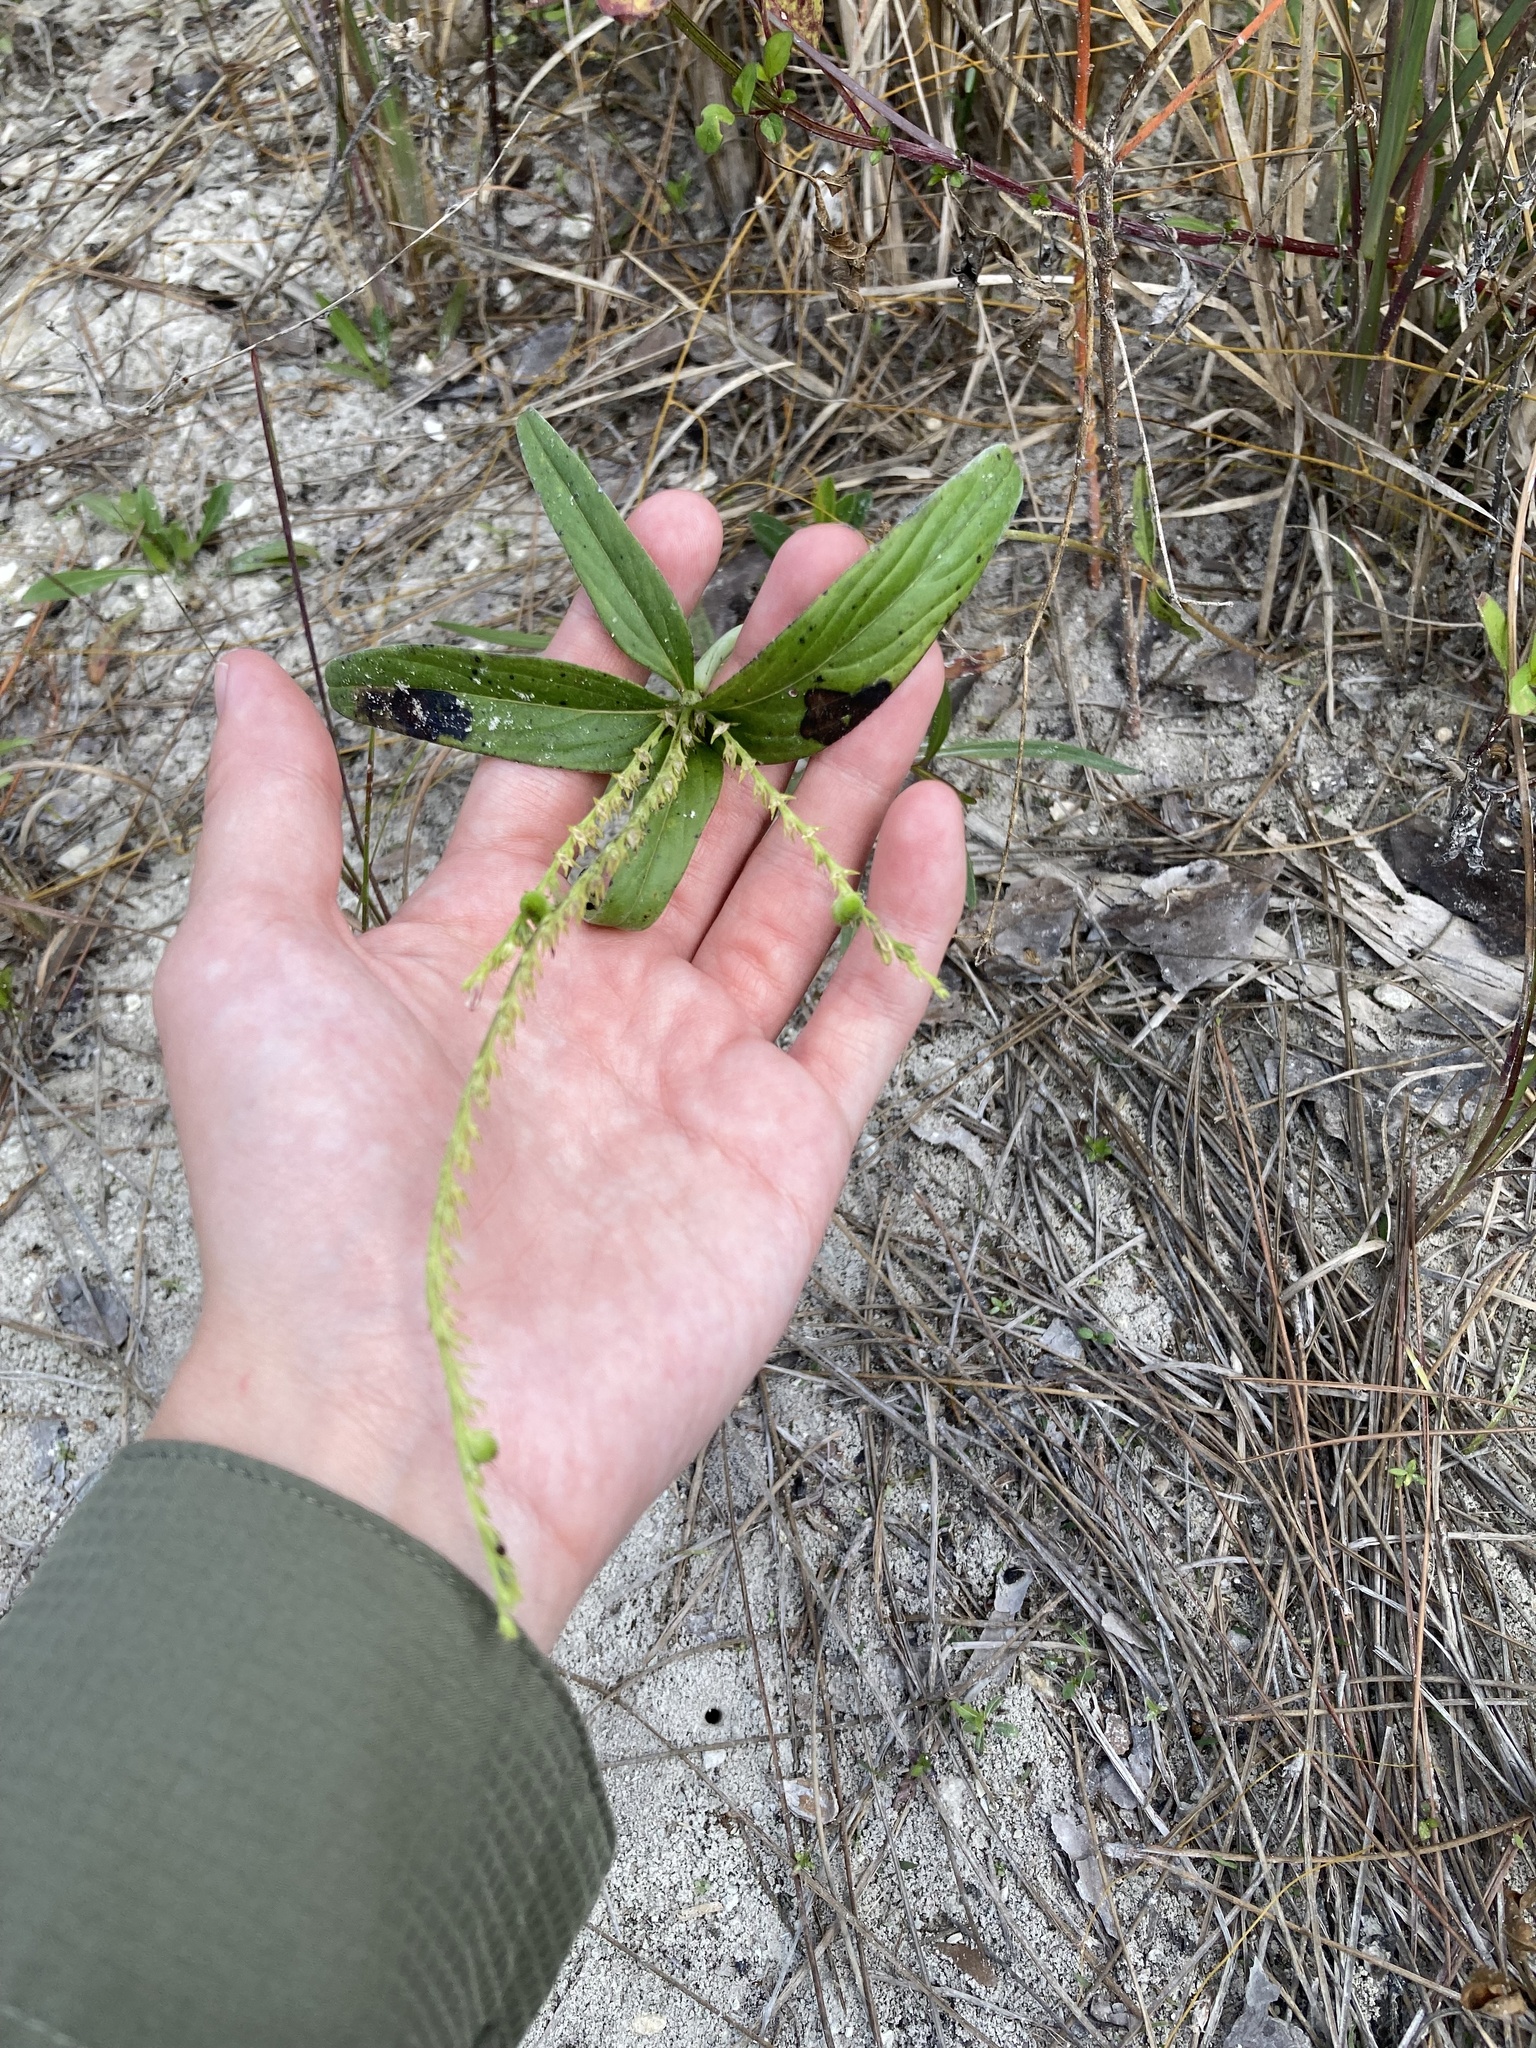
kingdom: Plantae
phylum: Tracheophyta
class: Magnoliopsida
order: Gentianales
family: Loganiaceae
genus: Spigelia
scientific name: Spigelia anthelmia
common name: West indian-pink
